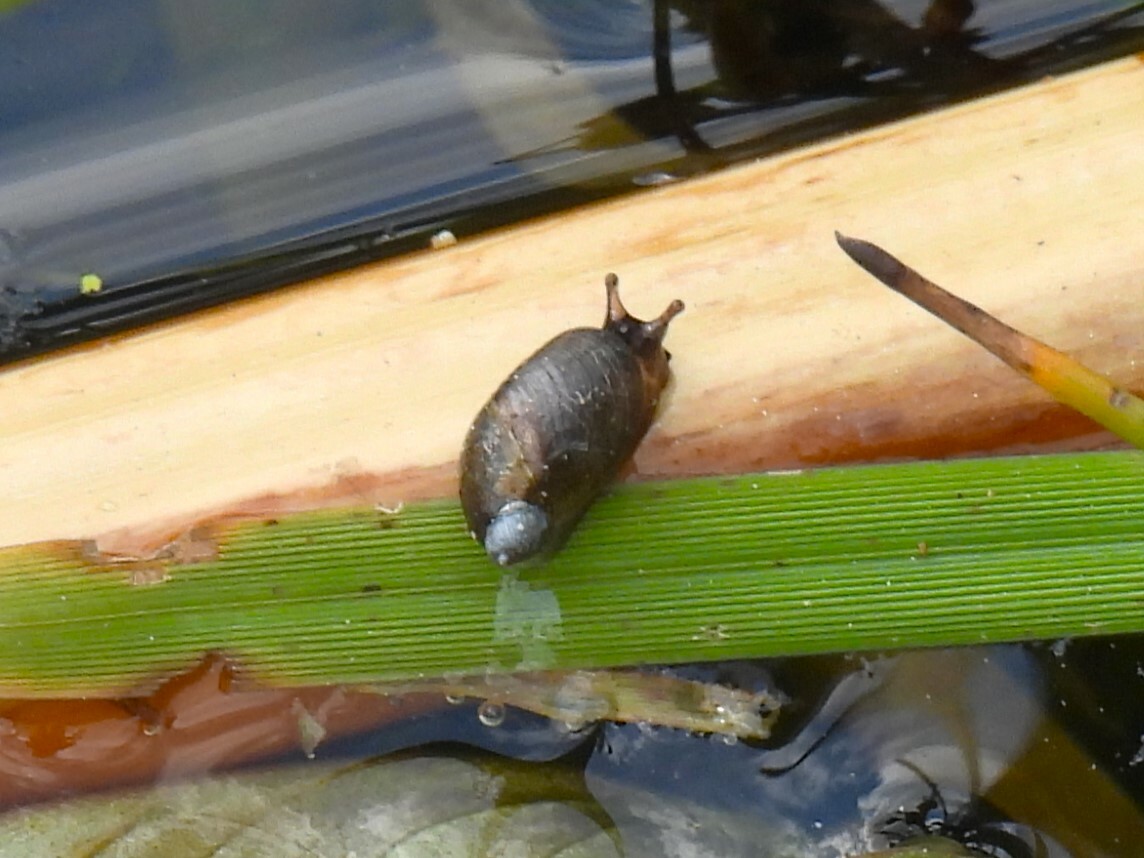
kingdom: Animalia
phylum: Mollusca
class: Gastropoda
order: Stylommatophora
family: Succineidae
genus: Oxyloma
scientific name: Oxyloma elegans
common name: Pfeiffer's amber snail
